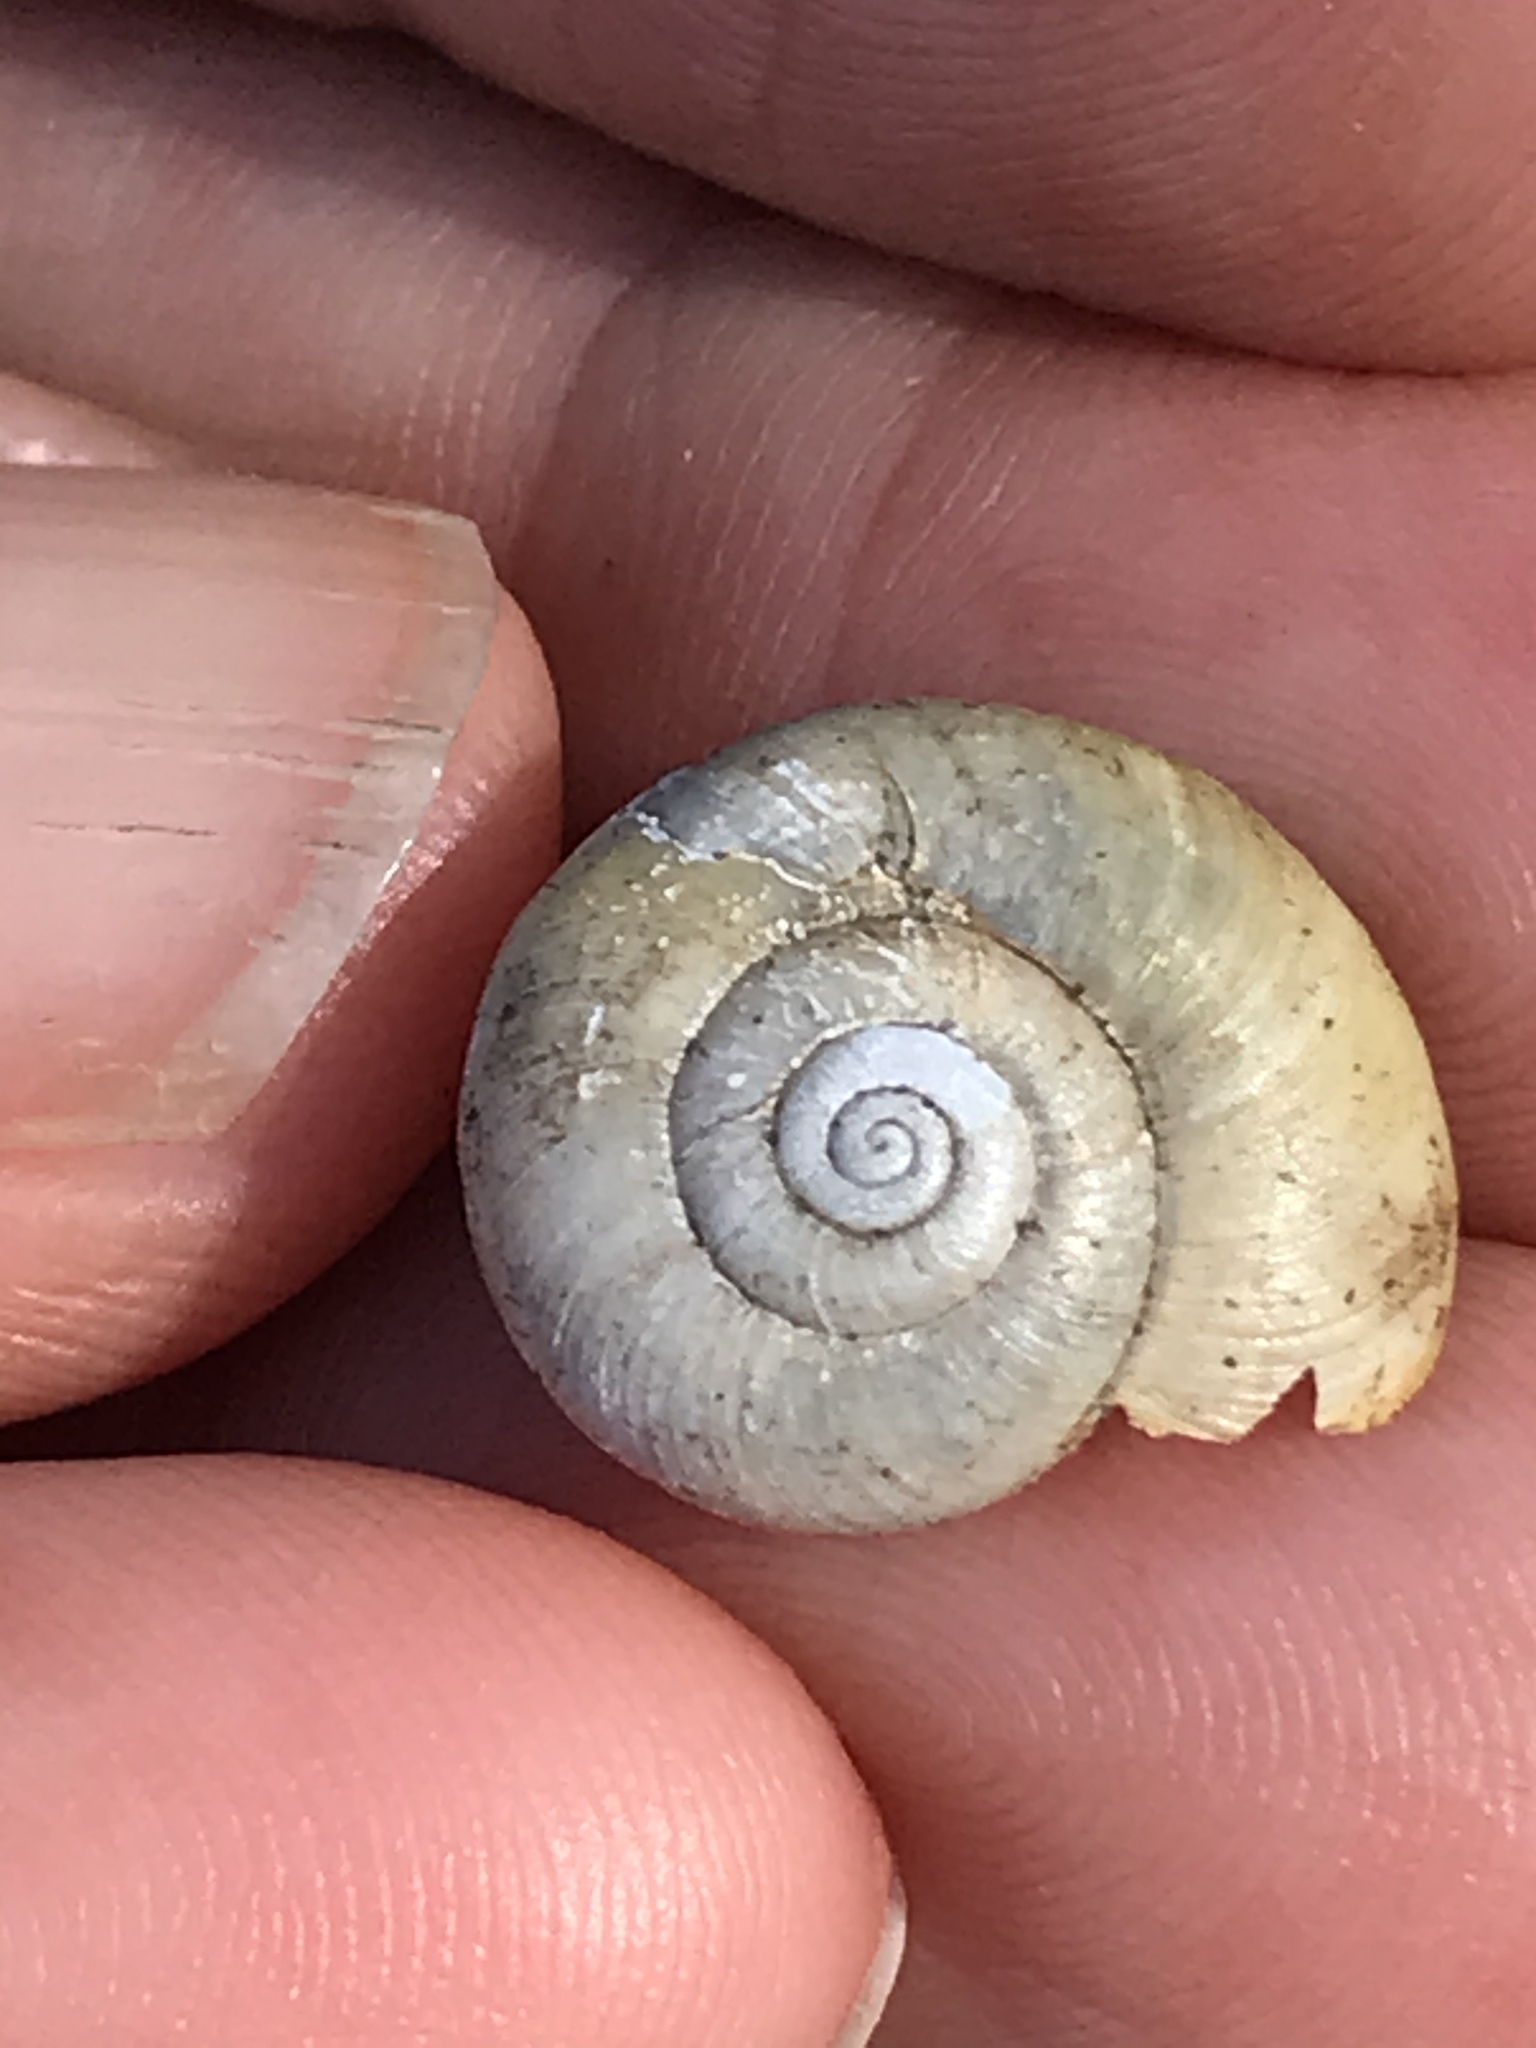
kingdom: Animalia
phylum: Mollusca
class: Gastropoda
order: Stylommatophora
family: Haplotrematidae
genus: Haplotrema
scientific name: Haplotrema minimum
